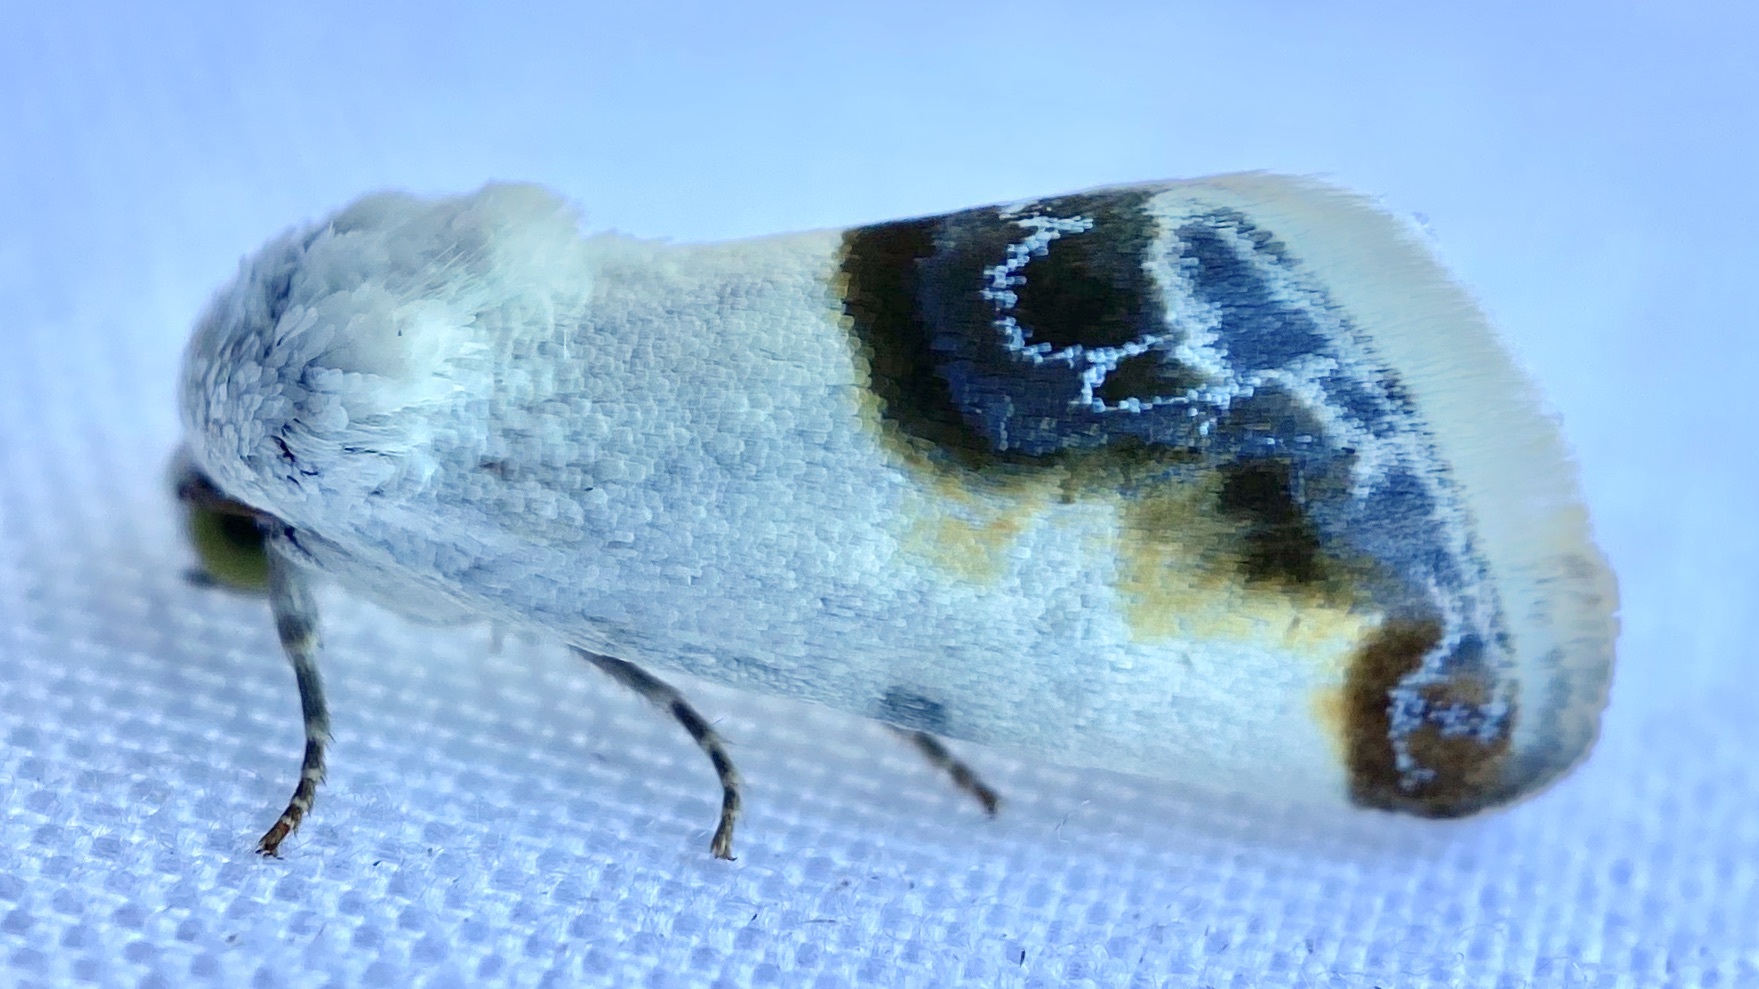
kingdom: Animalia
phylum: Arthropoda
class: Insecta
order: Lepidoptera
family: Noctuidae
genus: Acontia
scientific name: Acontia cretata
